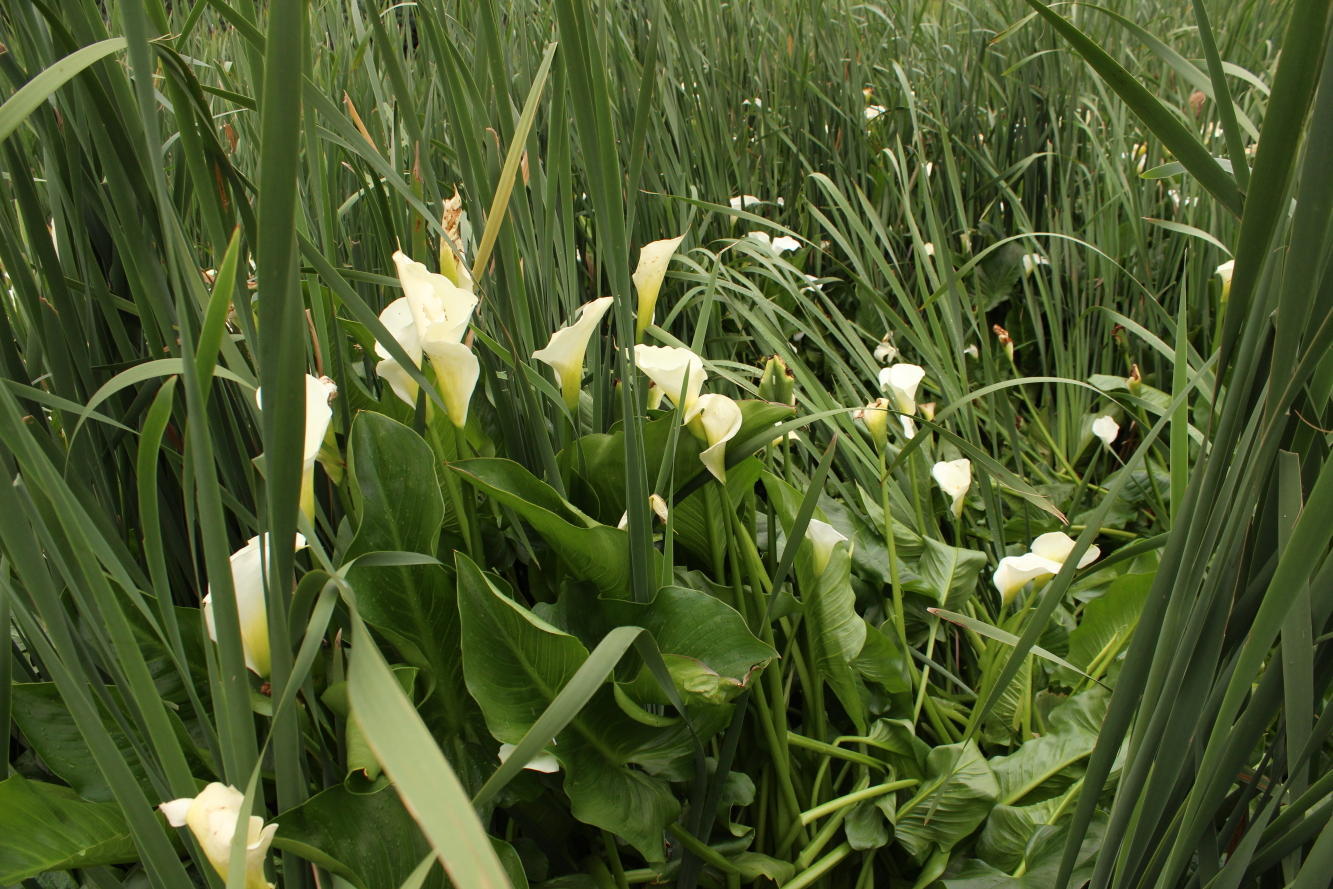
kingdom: Plantae
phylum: Tracheophyta
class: Liliopsida
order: Alismatales
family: Araceae
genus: Zantedeschia
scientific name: Zantedeschia aethiopica
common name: Altar-lily
